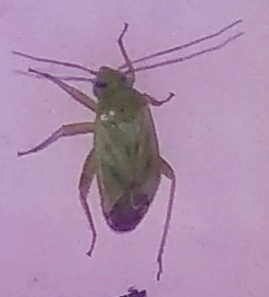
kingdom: Animalia
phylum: Arthropoda
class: Insecta
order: Hemiptera
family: Miridae
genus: Taylorilygus
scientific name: Taylorilygus apicalis
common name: Plant bug
